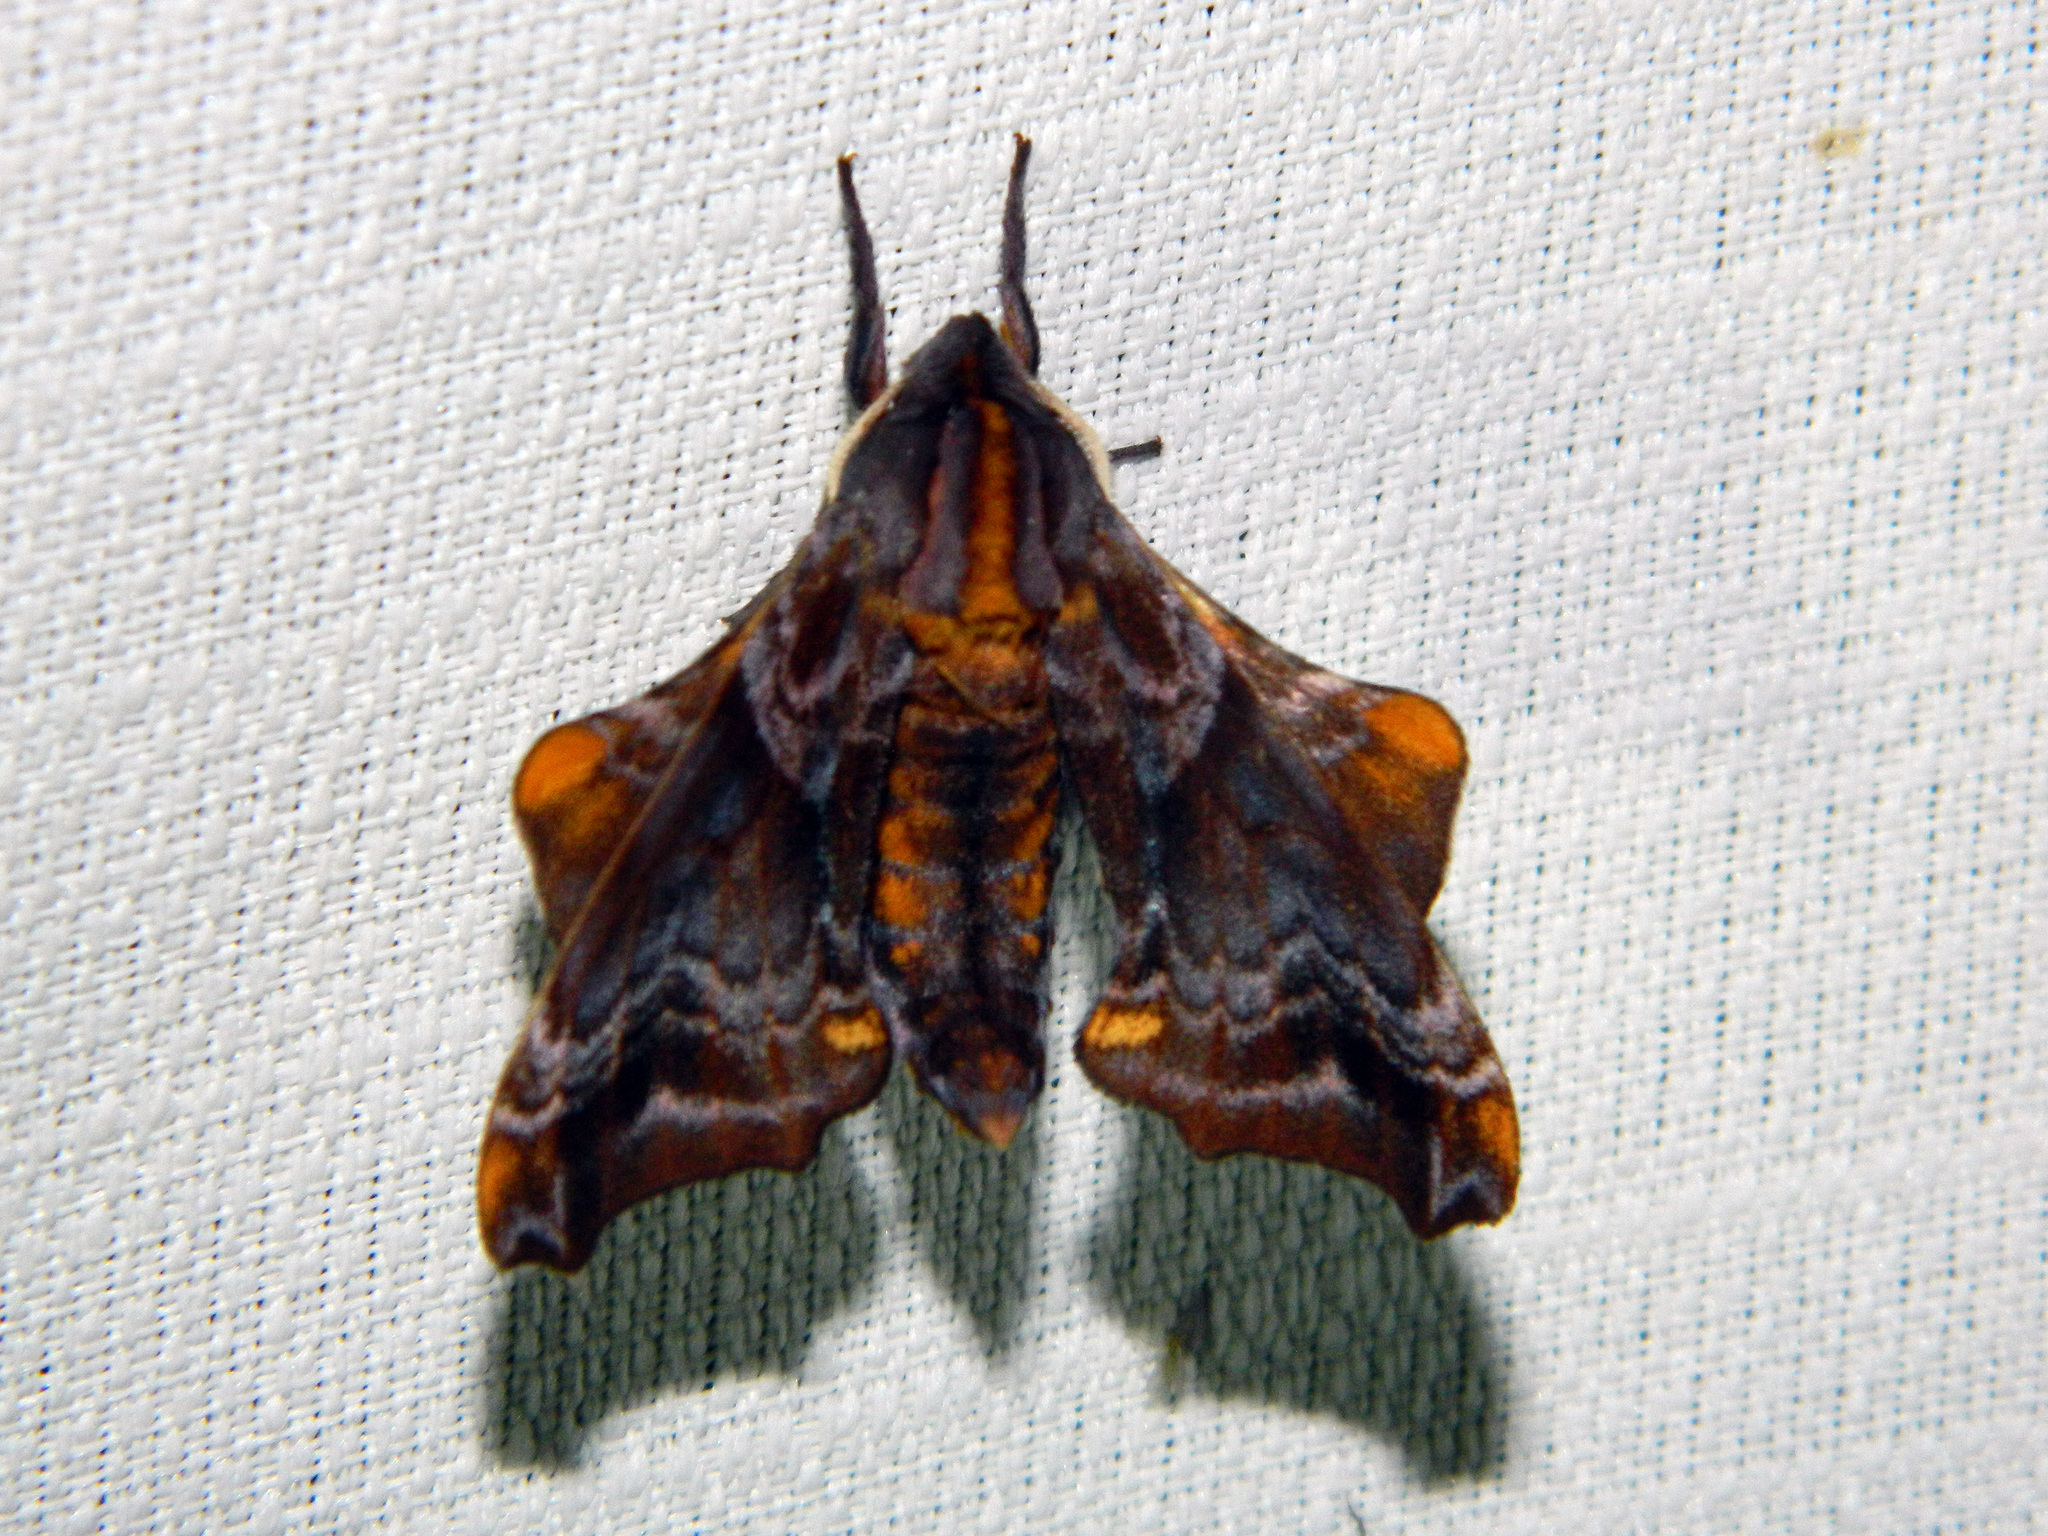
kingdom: Animalia
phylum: Arthropoda
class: Insecta
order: Lepidoptera
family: Sphingidae
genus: Paonias
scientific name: Paonias myops
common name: Small-eyed sphinx
